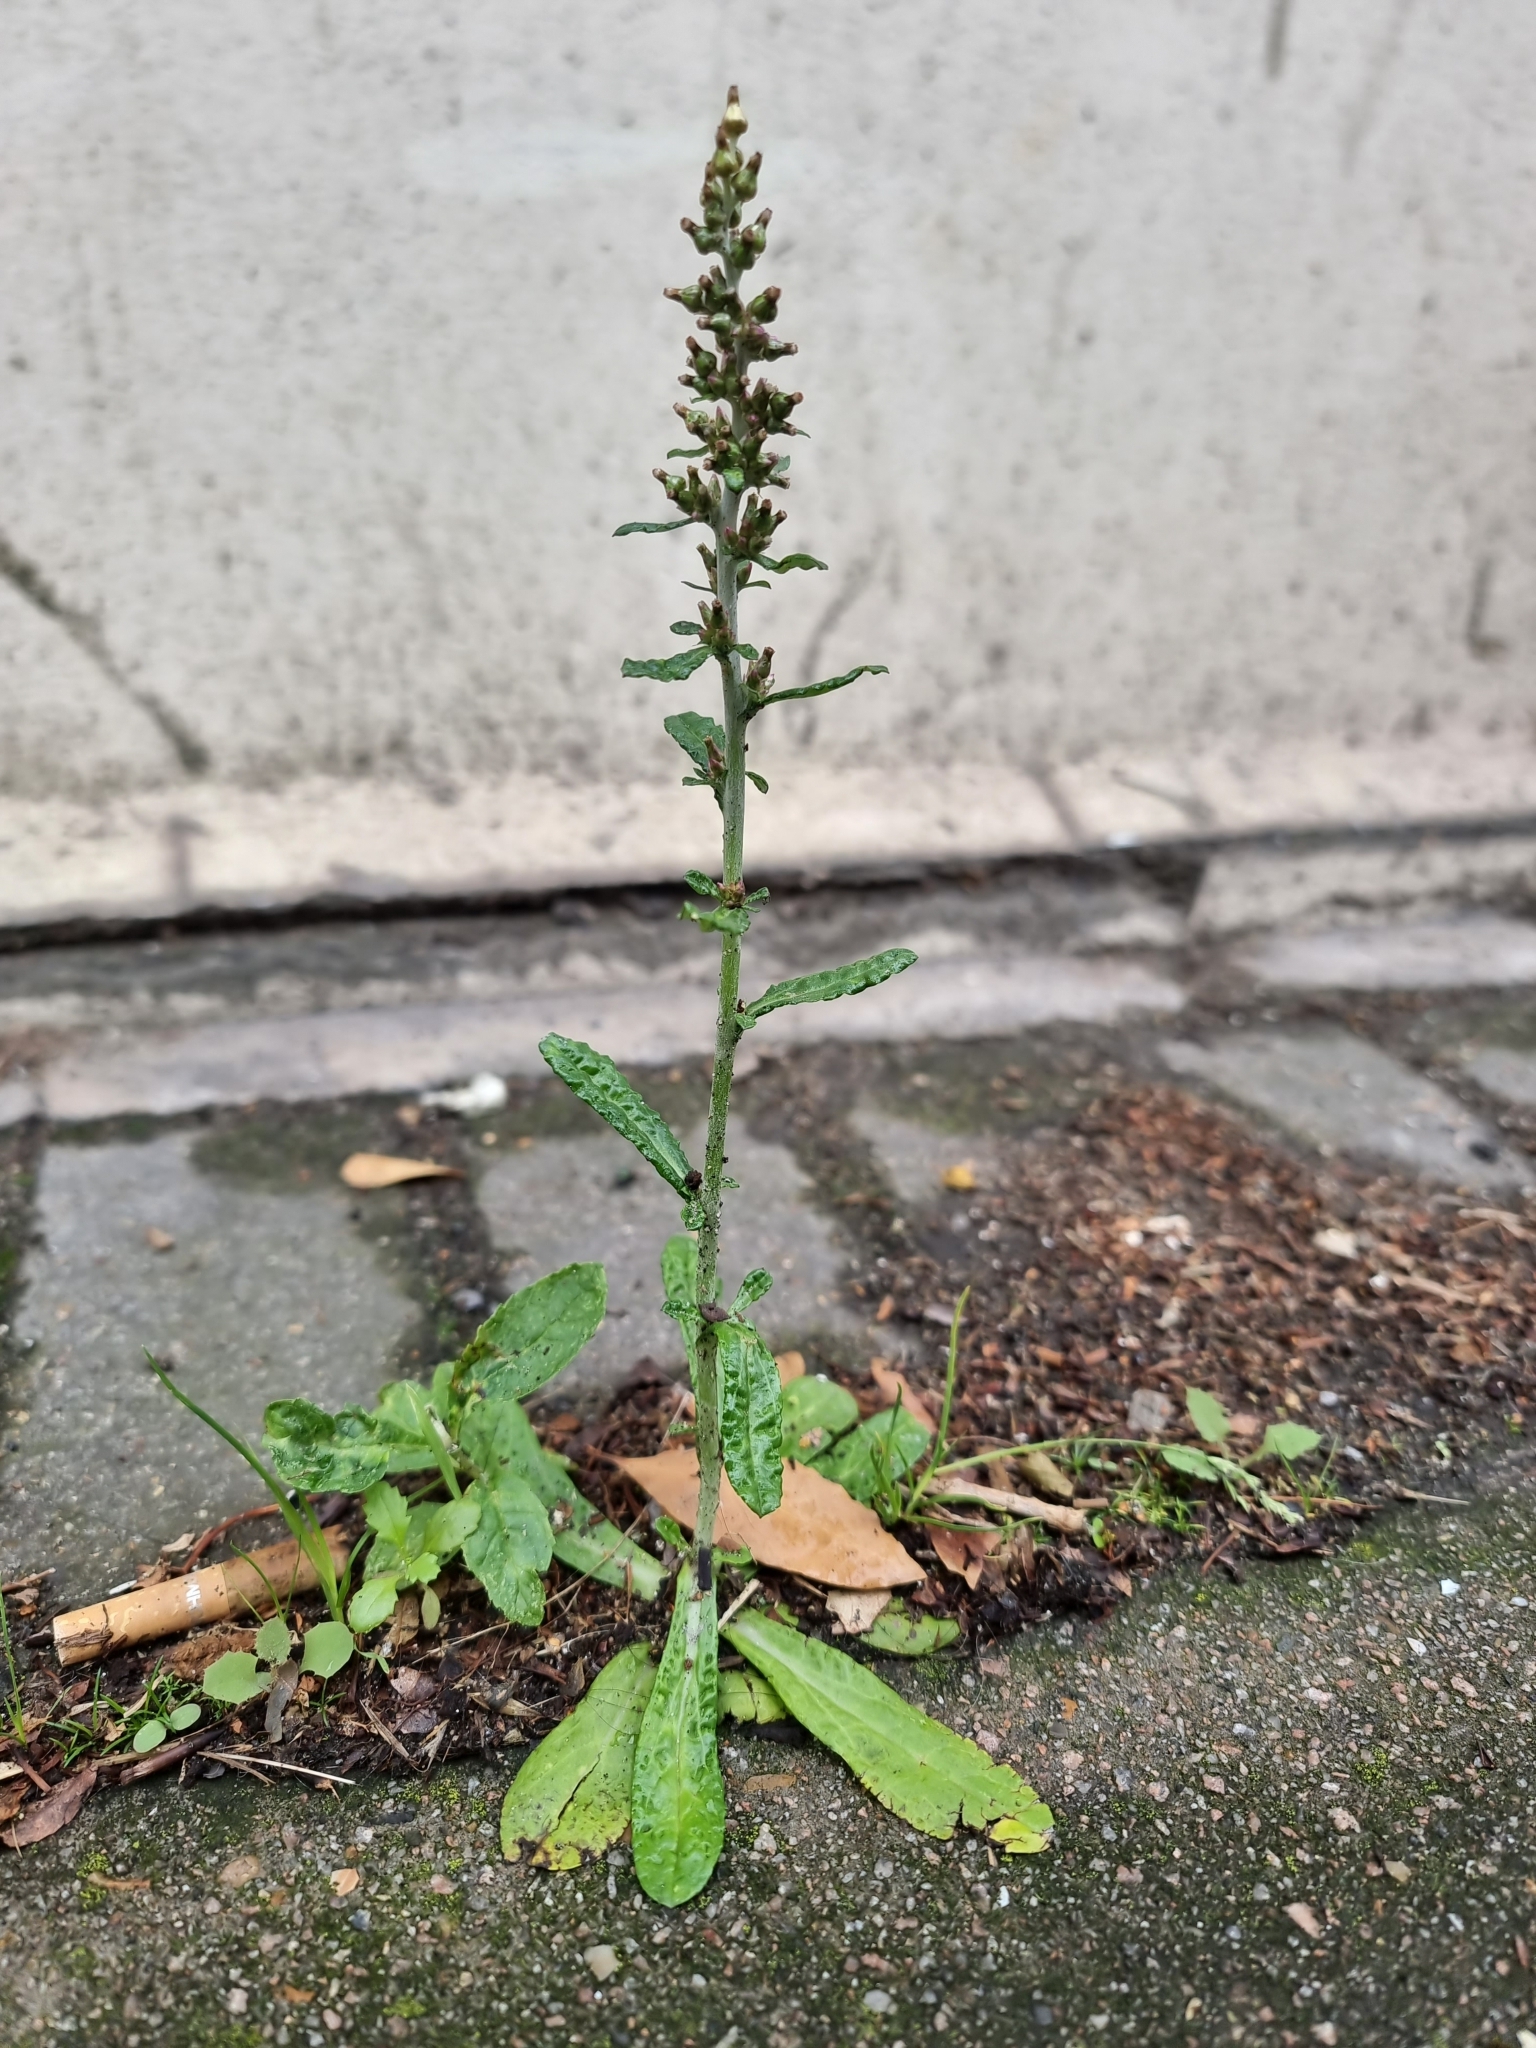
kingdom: Plantae
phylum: Tracheophyta
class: Magnoliopsida
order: Asterales
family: Asteraceae
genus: Gamochaeta
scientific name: Gamochaeta americana
